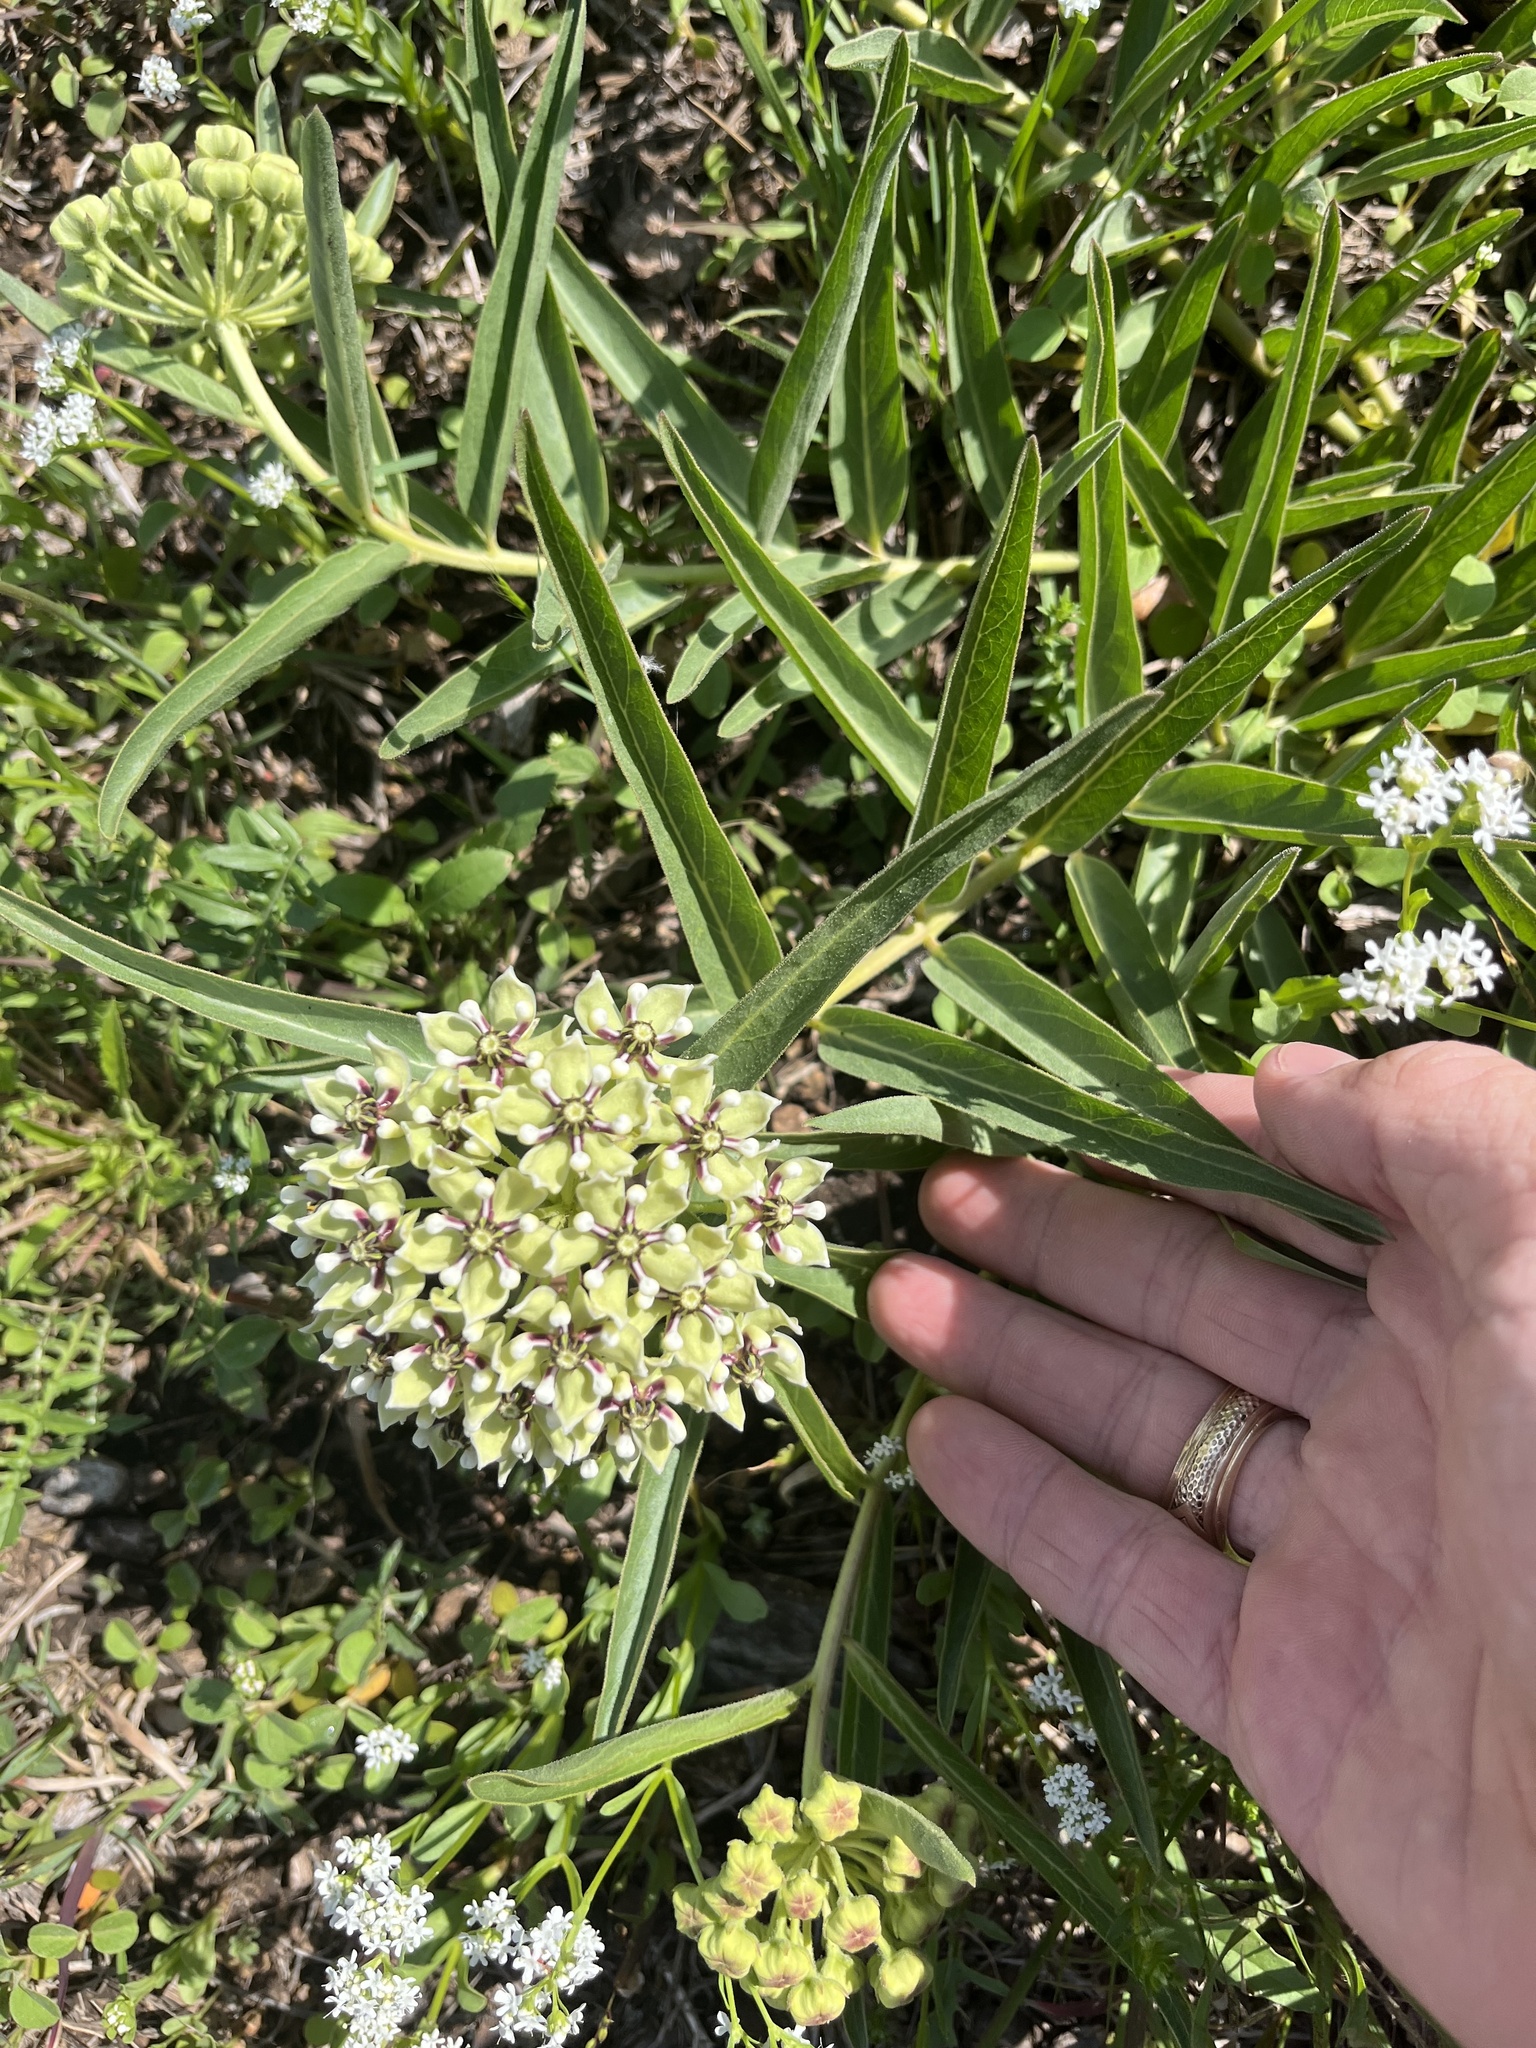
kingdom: Plantae
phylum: Tracheophyta
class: Magnoliopsida
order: Gentianales
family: Apocynaceae
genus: Asclepias
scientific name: Asclepias asperula
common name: Antelope horns
